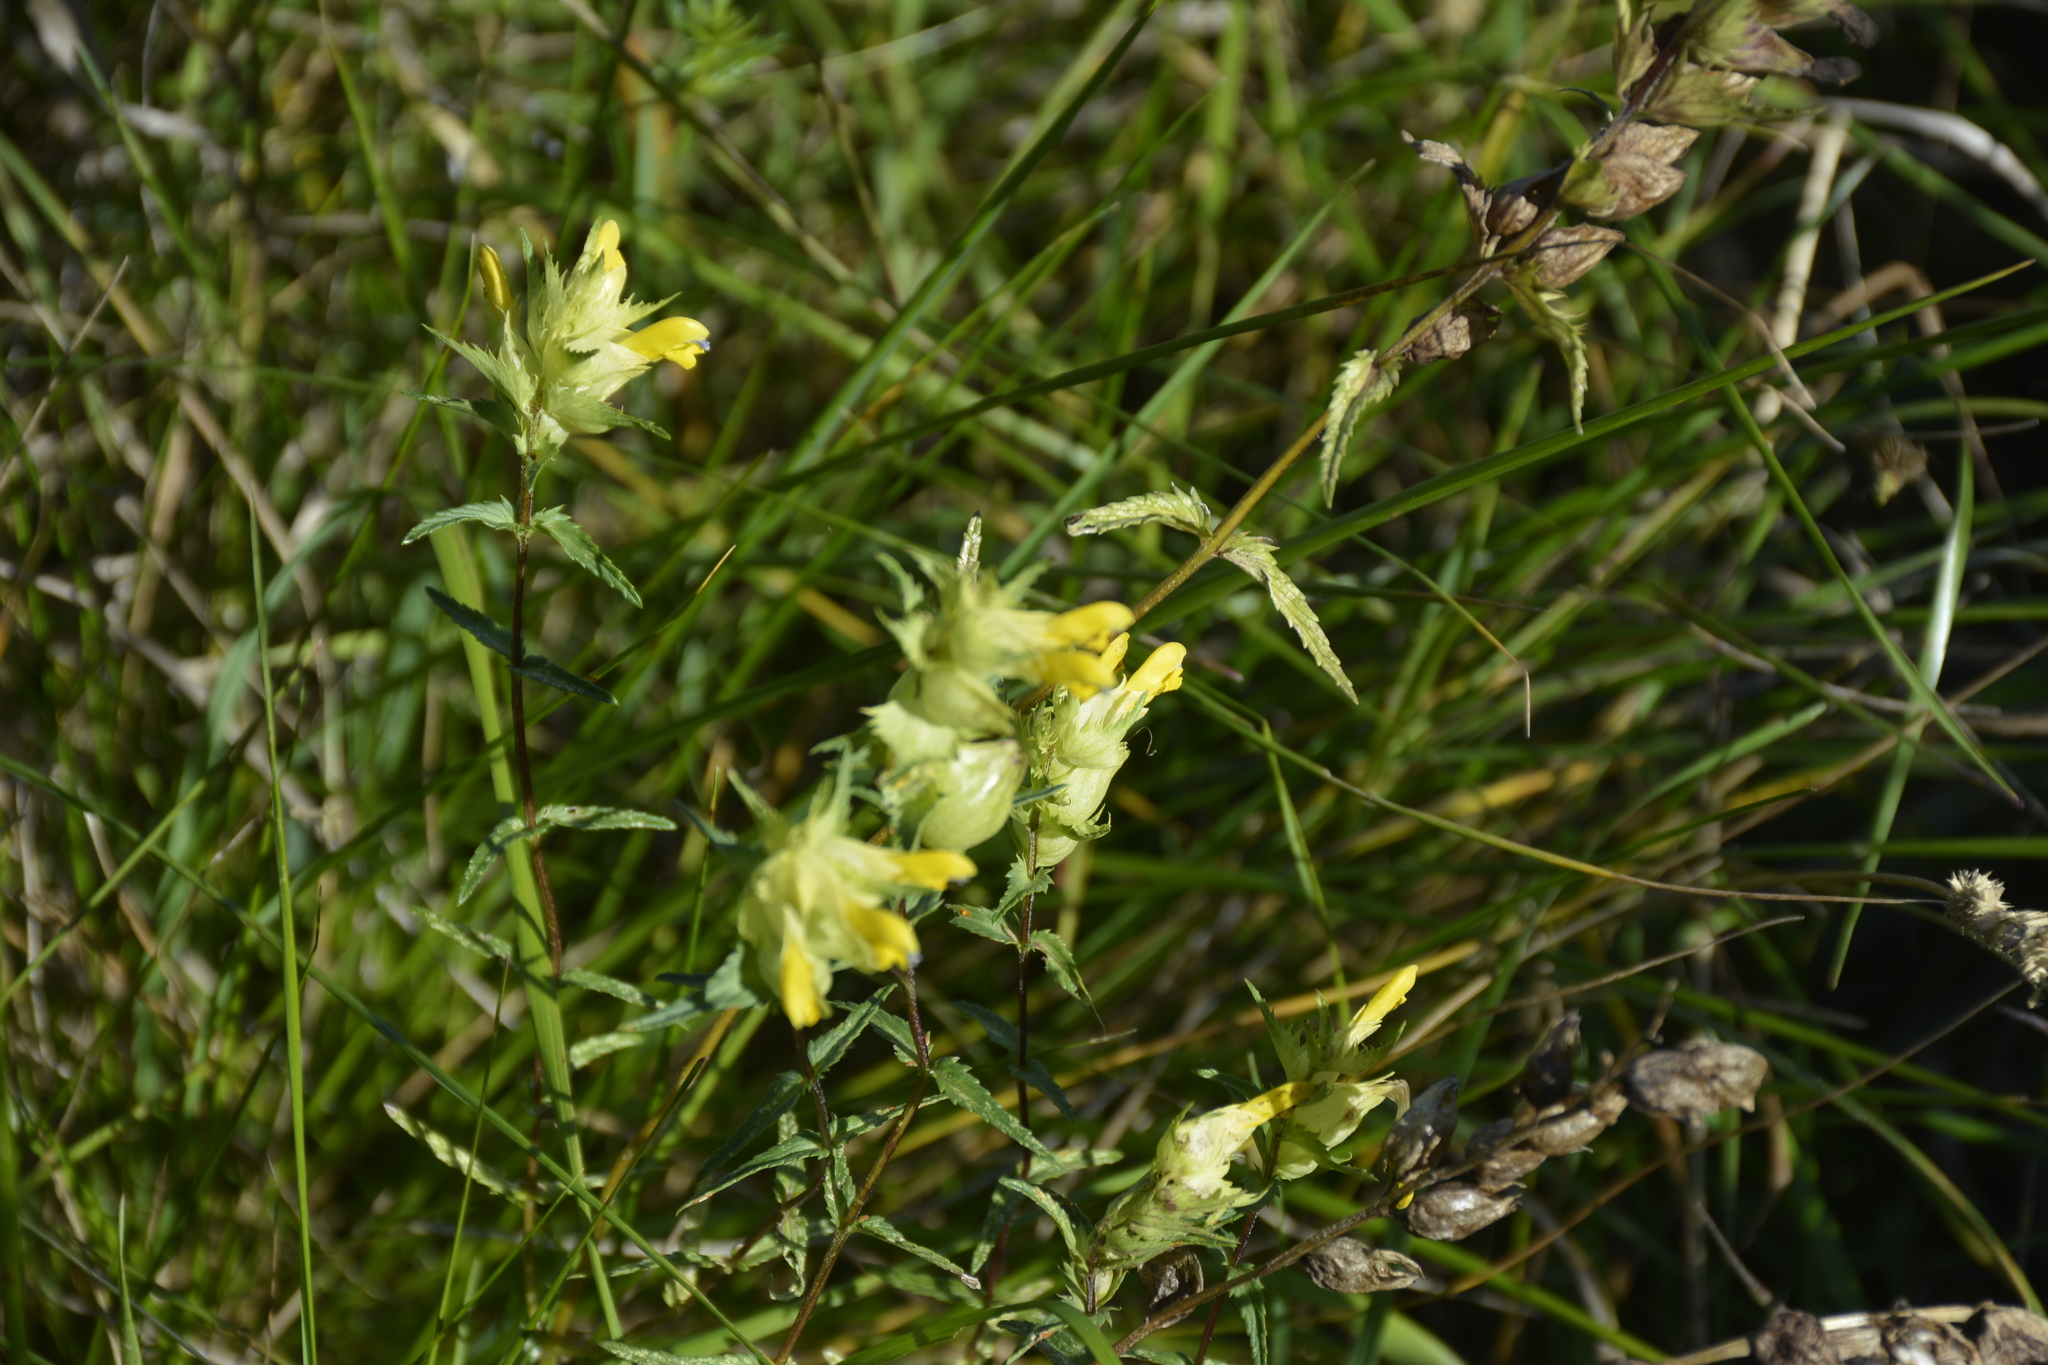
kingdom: Plantae
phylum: Tracheophyta
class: Magnoliopsida
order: Lamiales
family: Orobanchaceae
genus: Rhinanthus
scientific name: Rhinanthus serotinus
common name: Late-flowering yellow rattle
